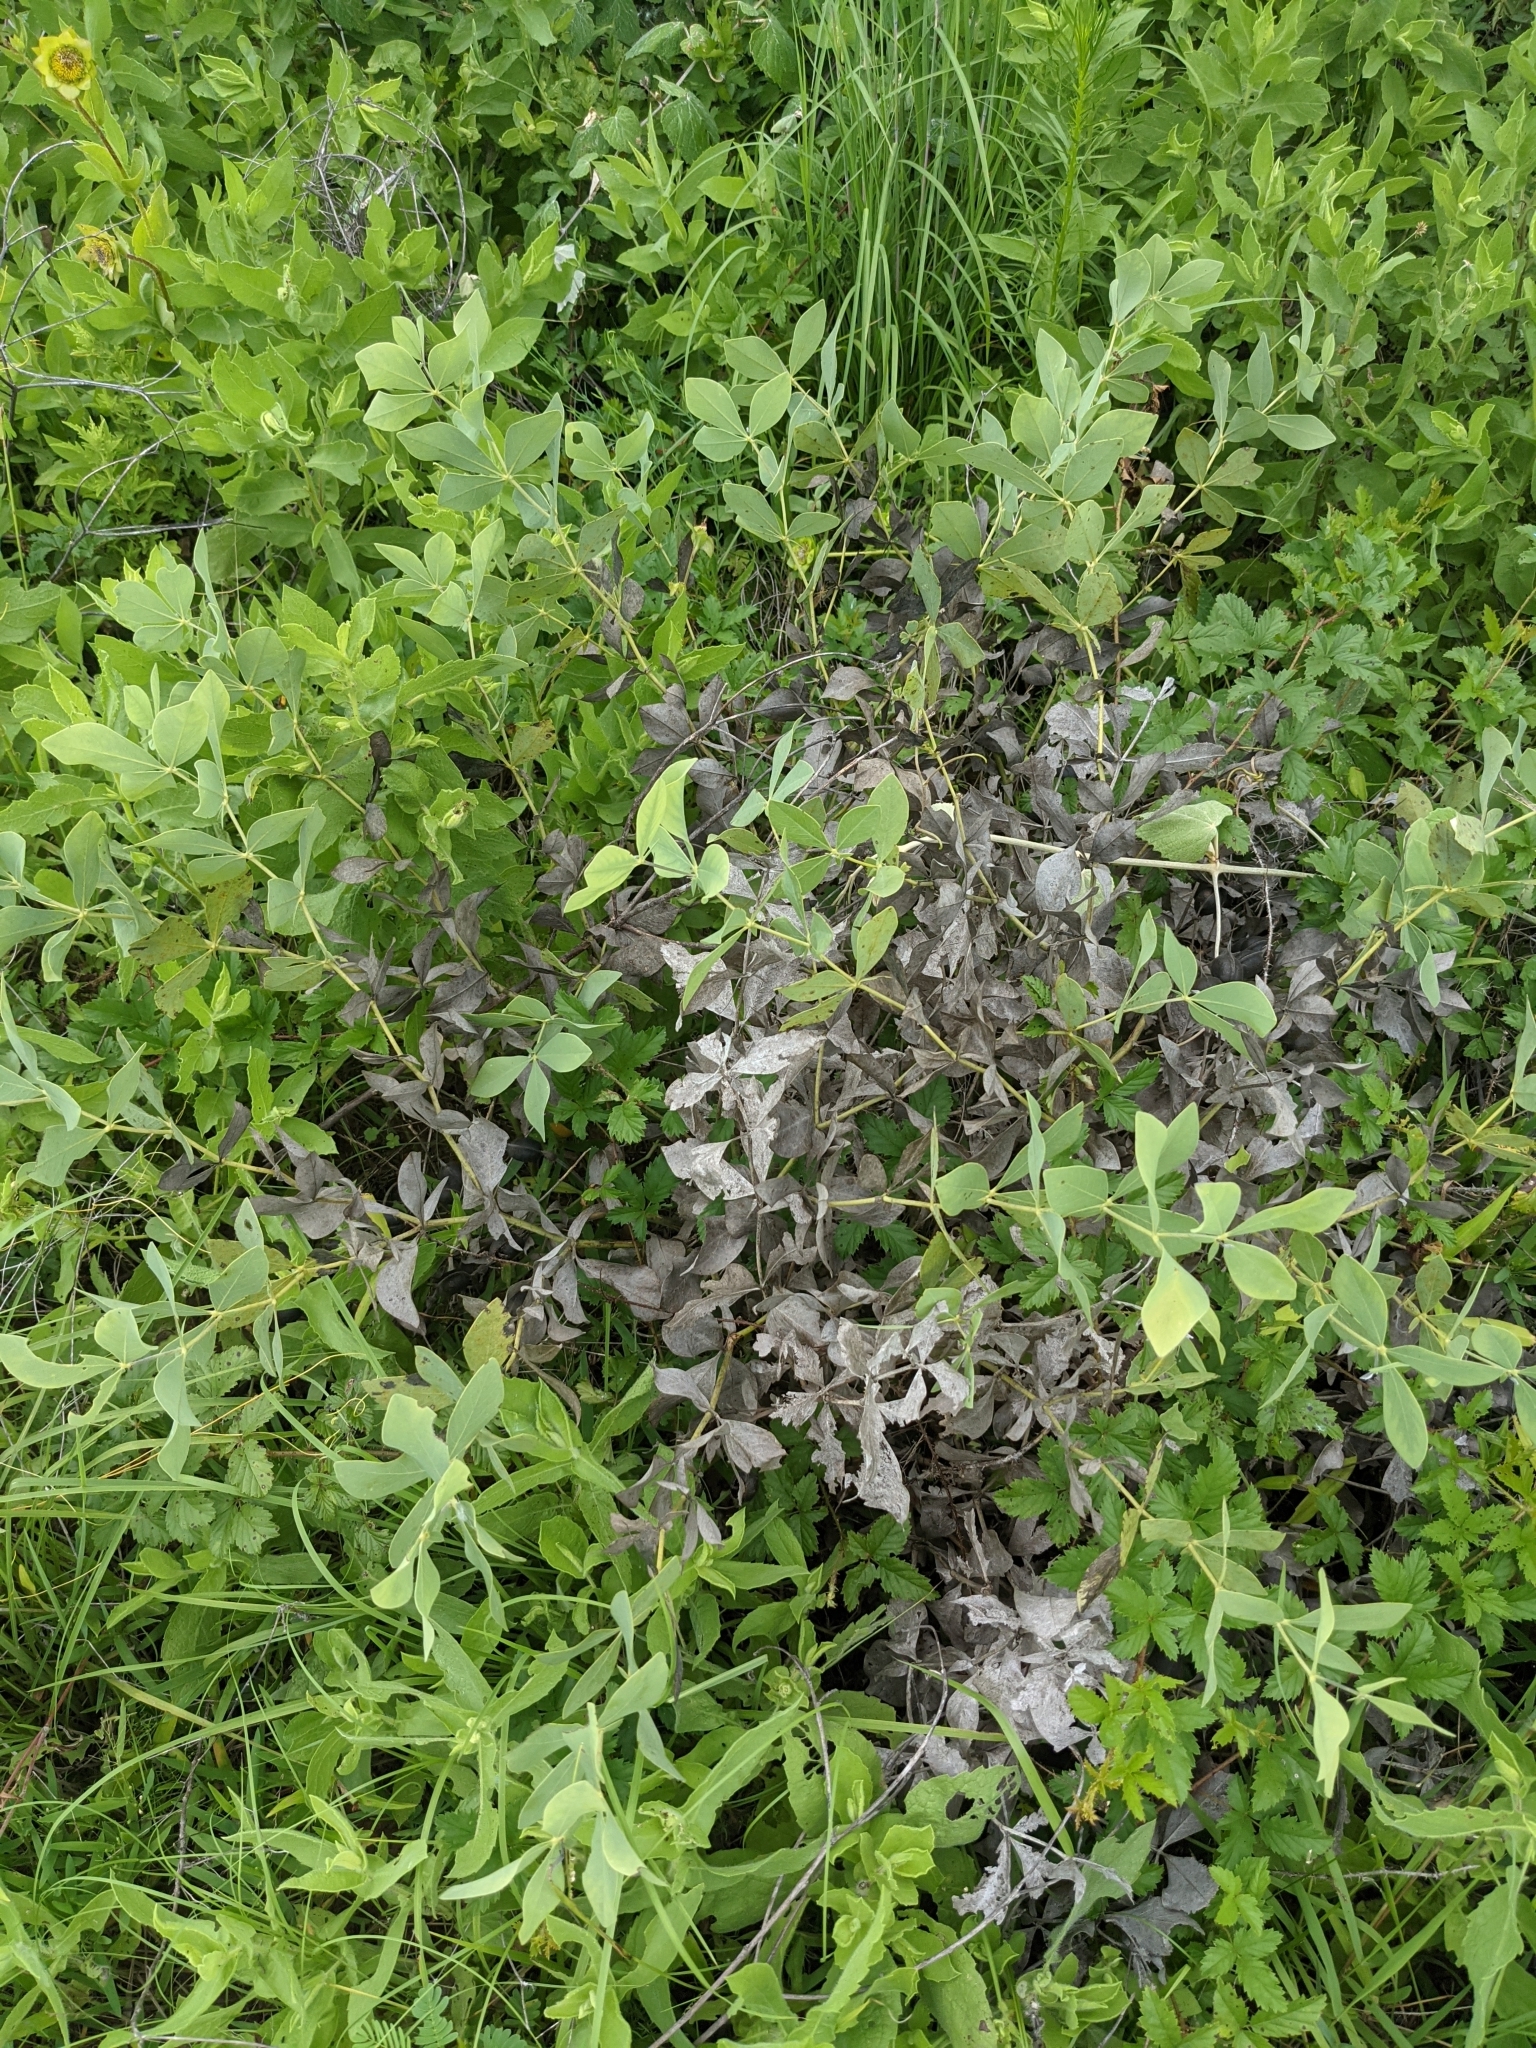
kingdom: Plantae
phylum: Tracheophyta
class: Magnoliopsida
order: Fabales
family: Fabaceae
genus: Baptisia
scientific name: Baptisia bracteata
